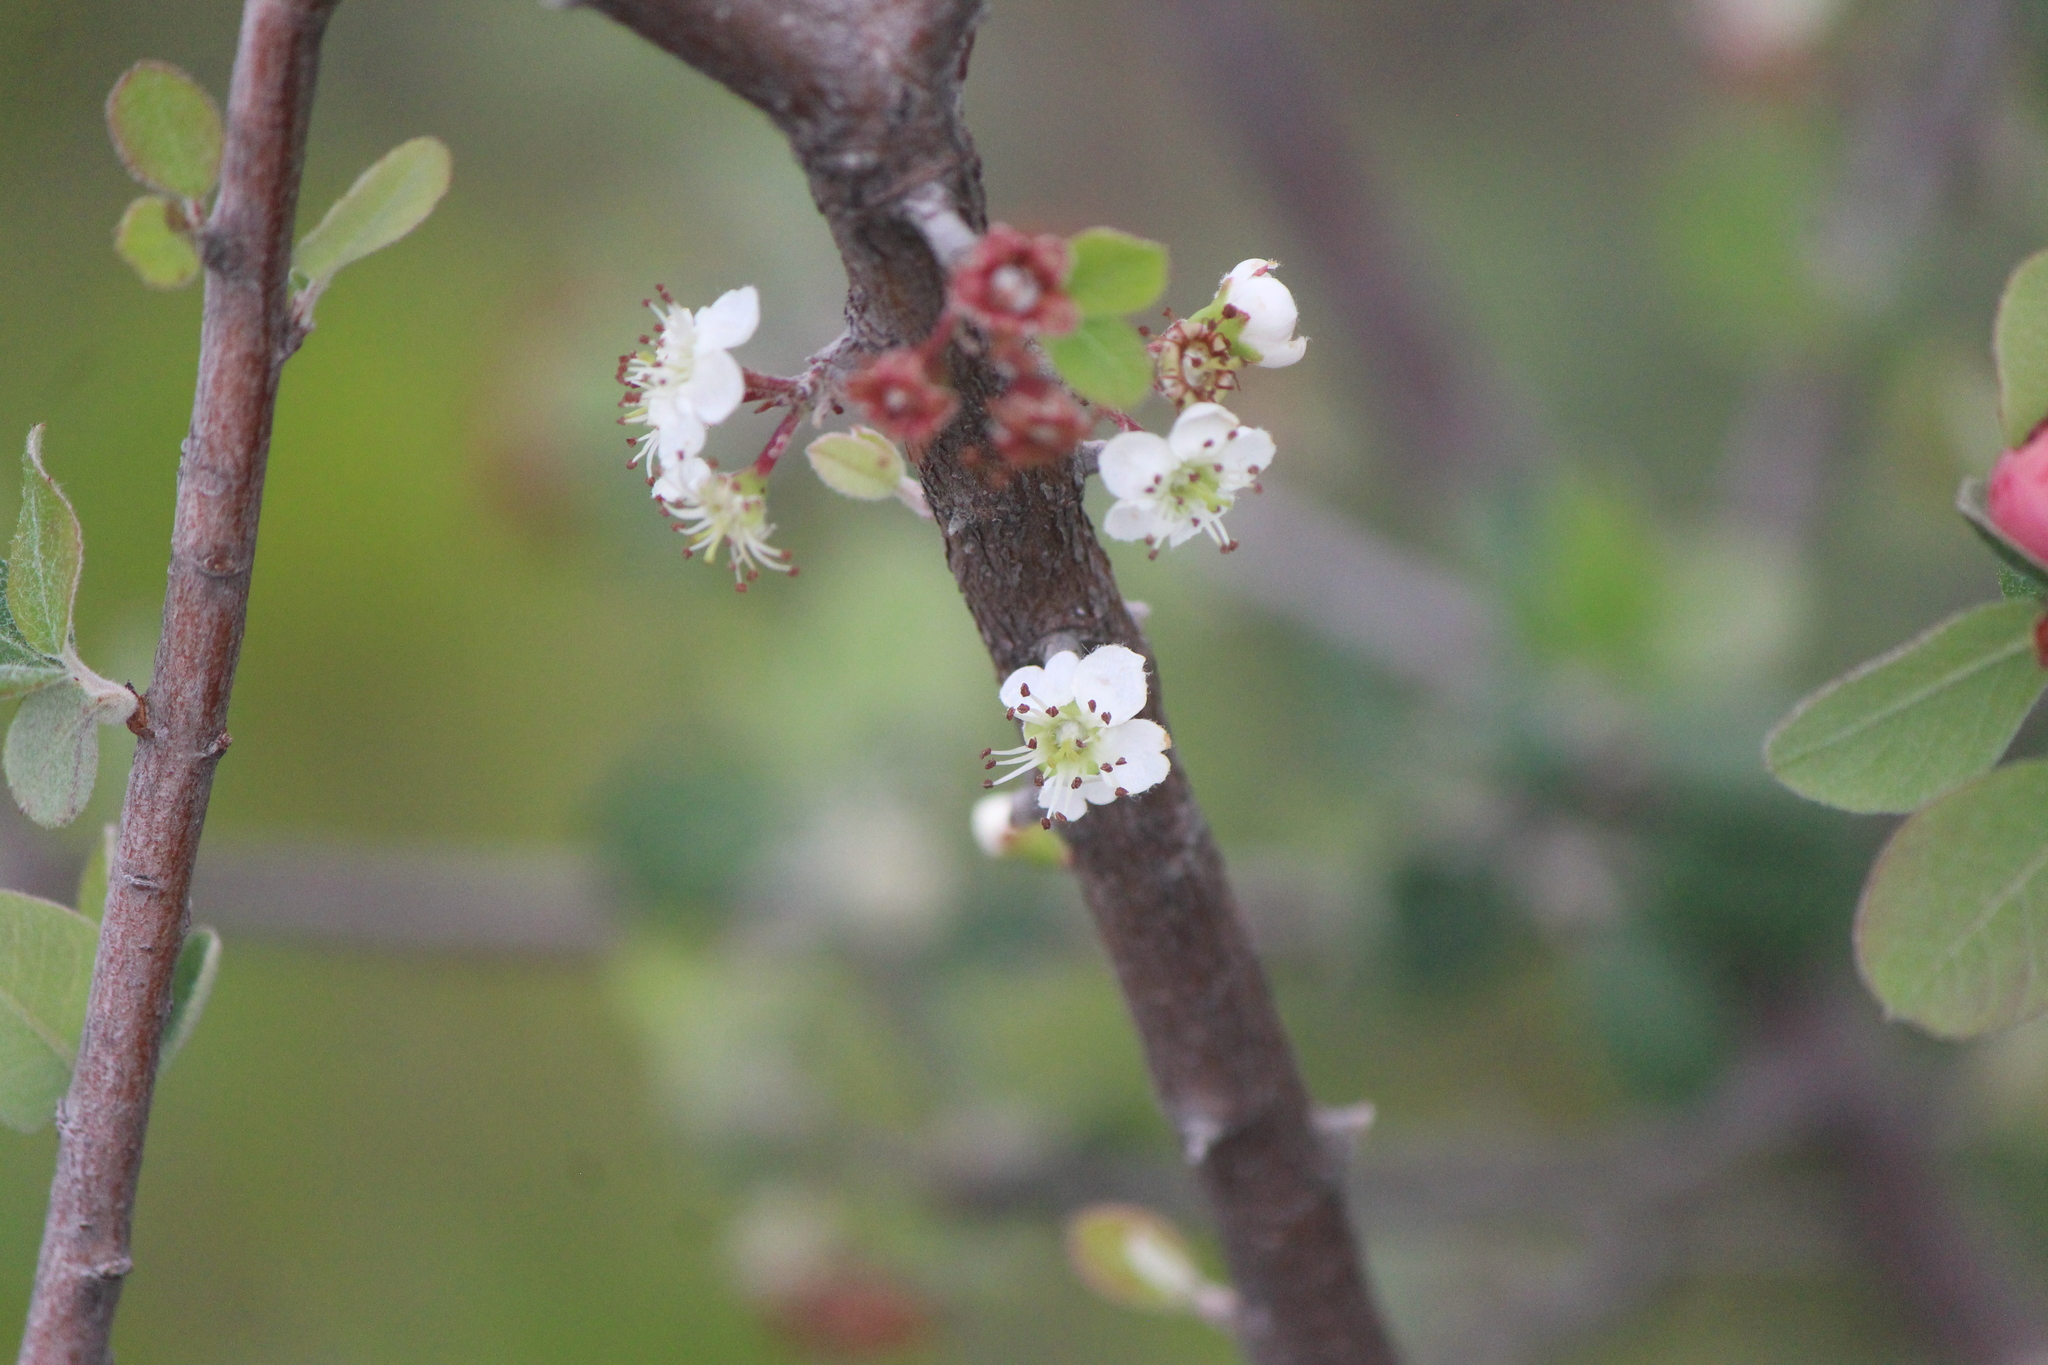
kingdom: Plantae
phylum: Tracheophyta
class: Magnoliopsida
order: Rosales
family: Rosaceae
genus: Malacomeles
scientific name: Malacomeles denticulata
